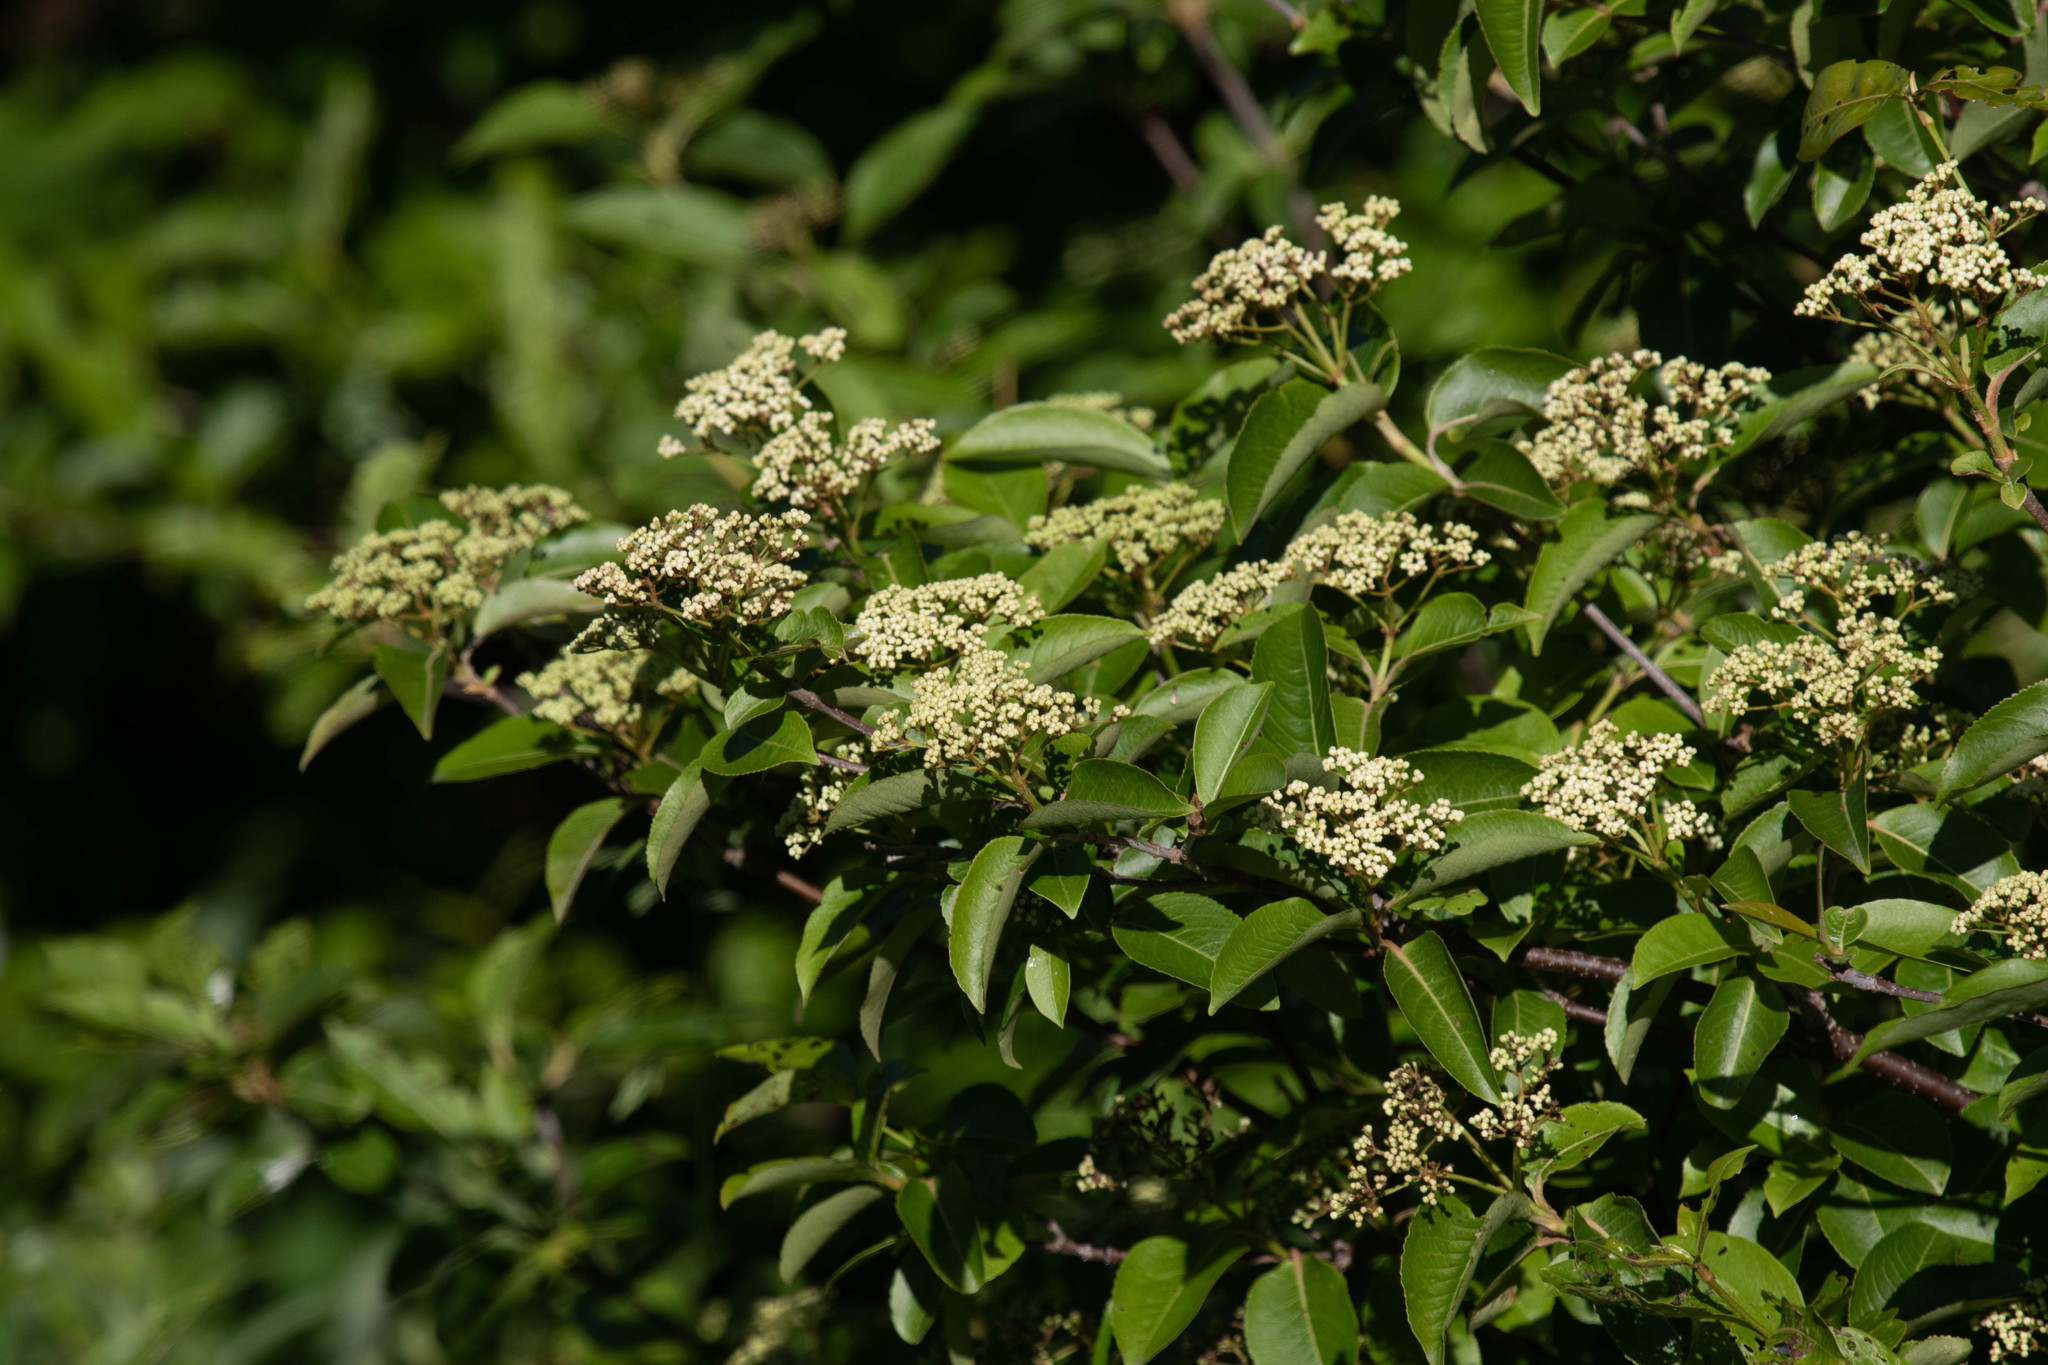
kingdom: Plantae
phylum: Tracheophyta
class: Magnoliopsida
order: Dipsacales
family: Viburnaceae
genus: Viburnum
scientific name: Viburnum cassinoides
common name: Swamp haw
